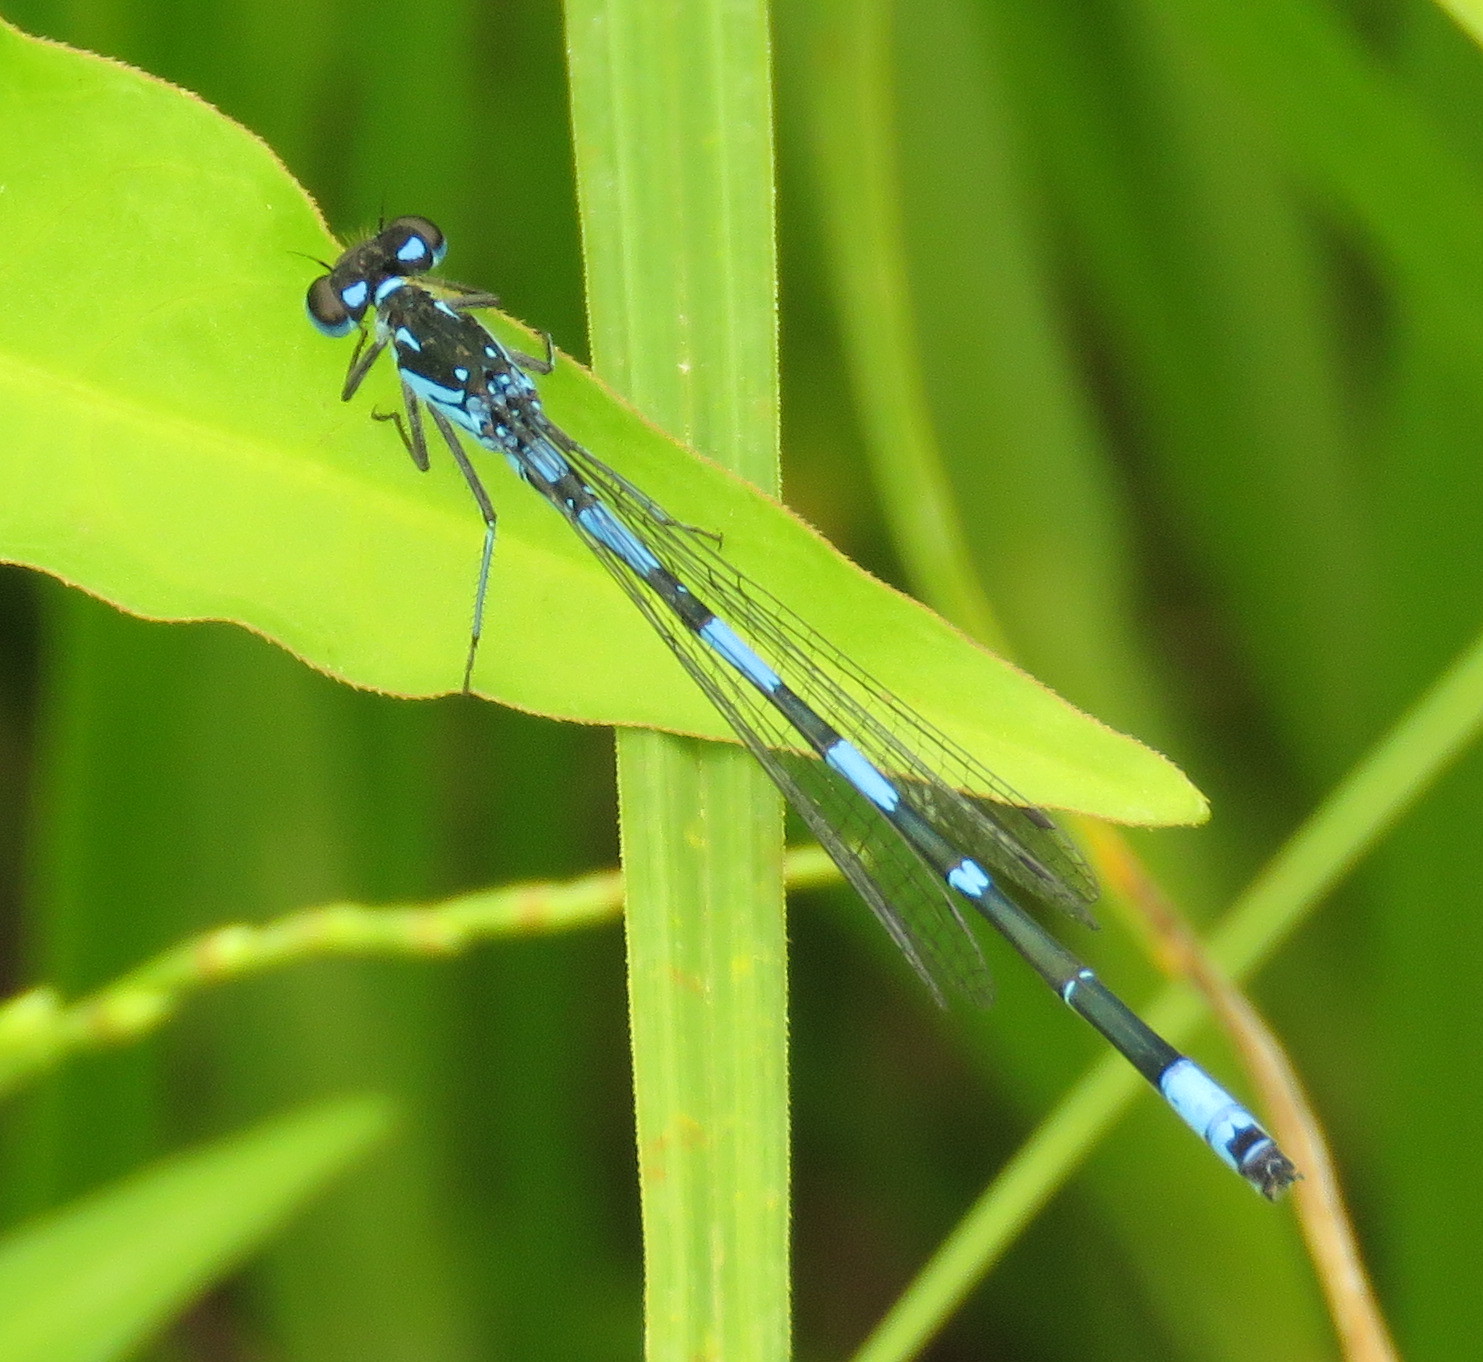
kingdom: Animalia
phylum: Arthropoda
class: Insecta
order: Odonata
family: Coenagrionidae
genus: Coenagrion
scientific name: Coenagrion pulchellum
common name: Variable bluet
